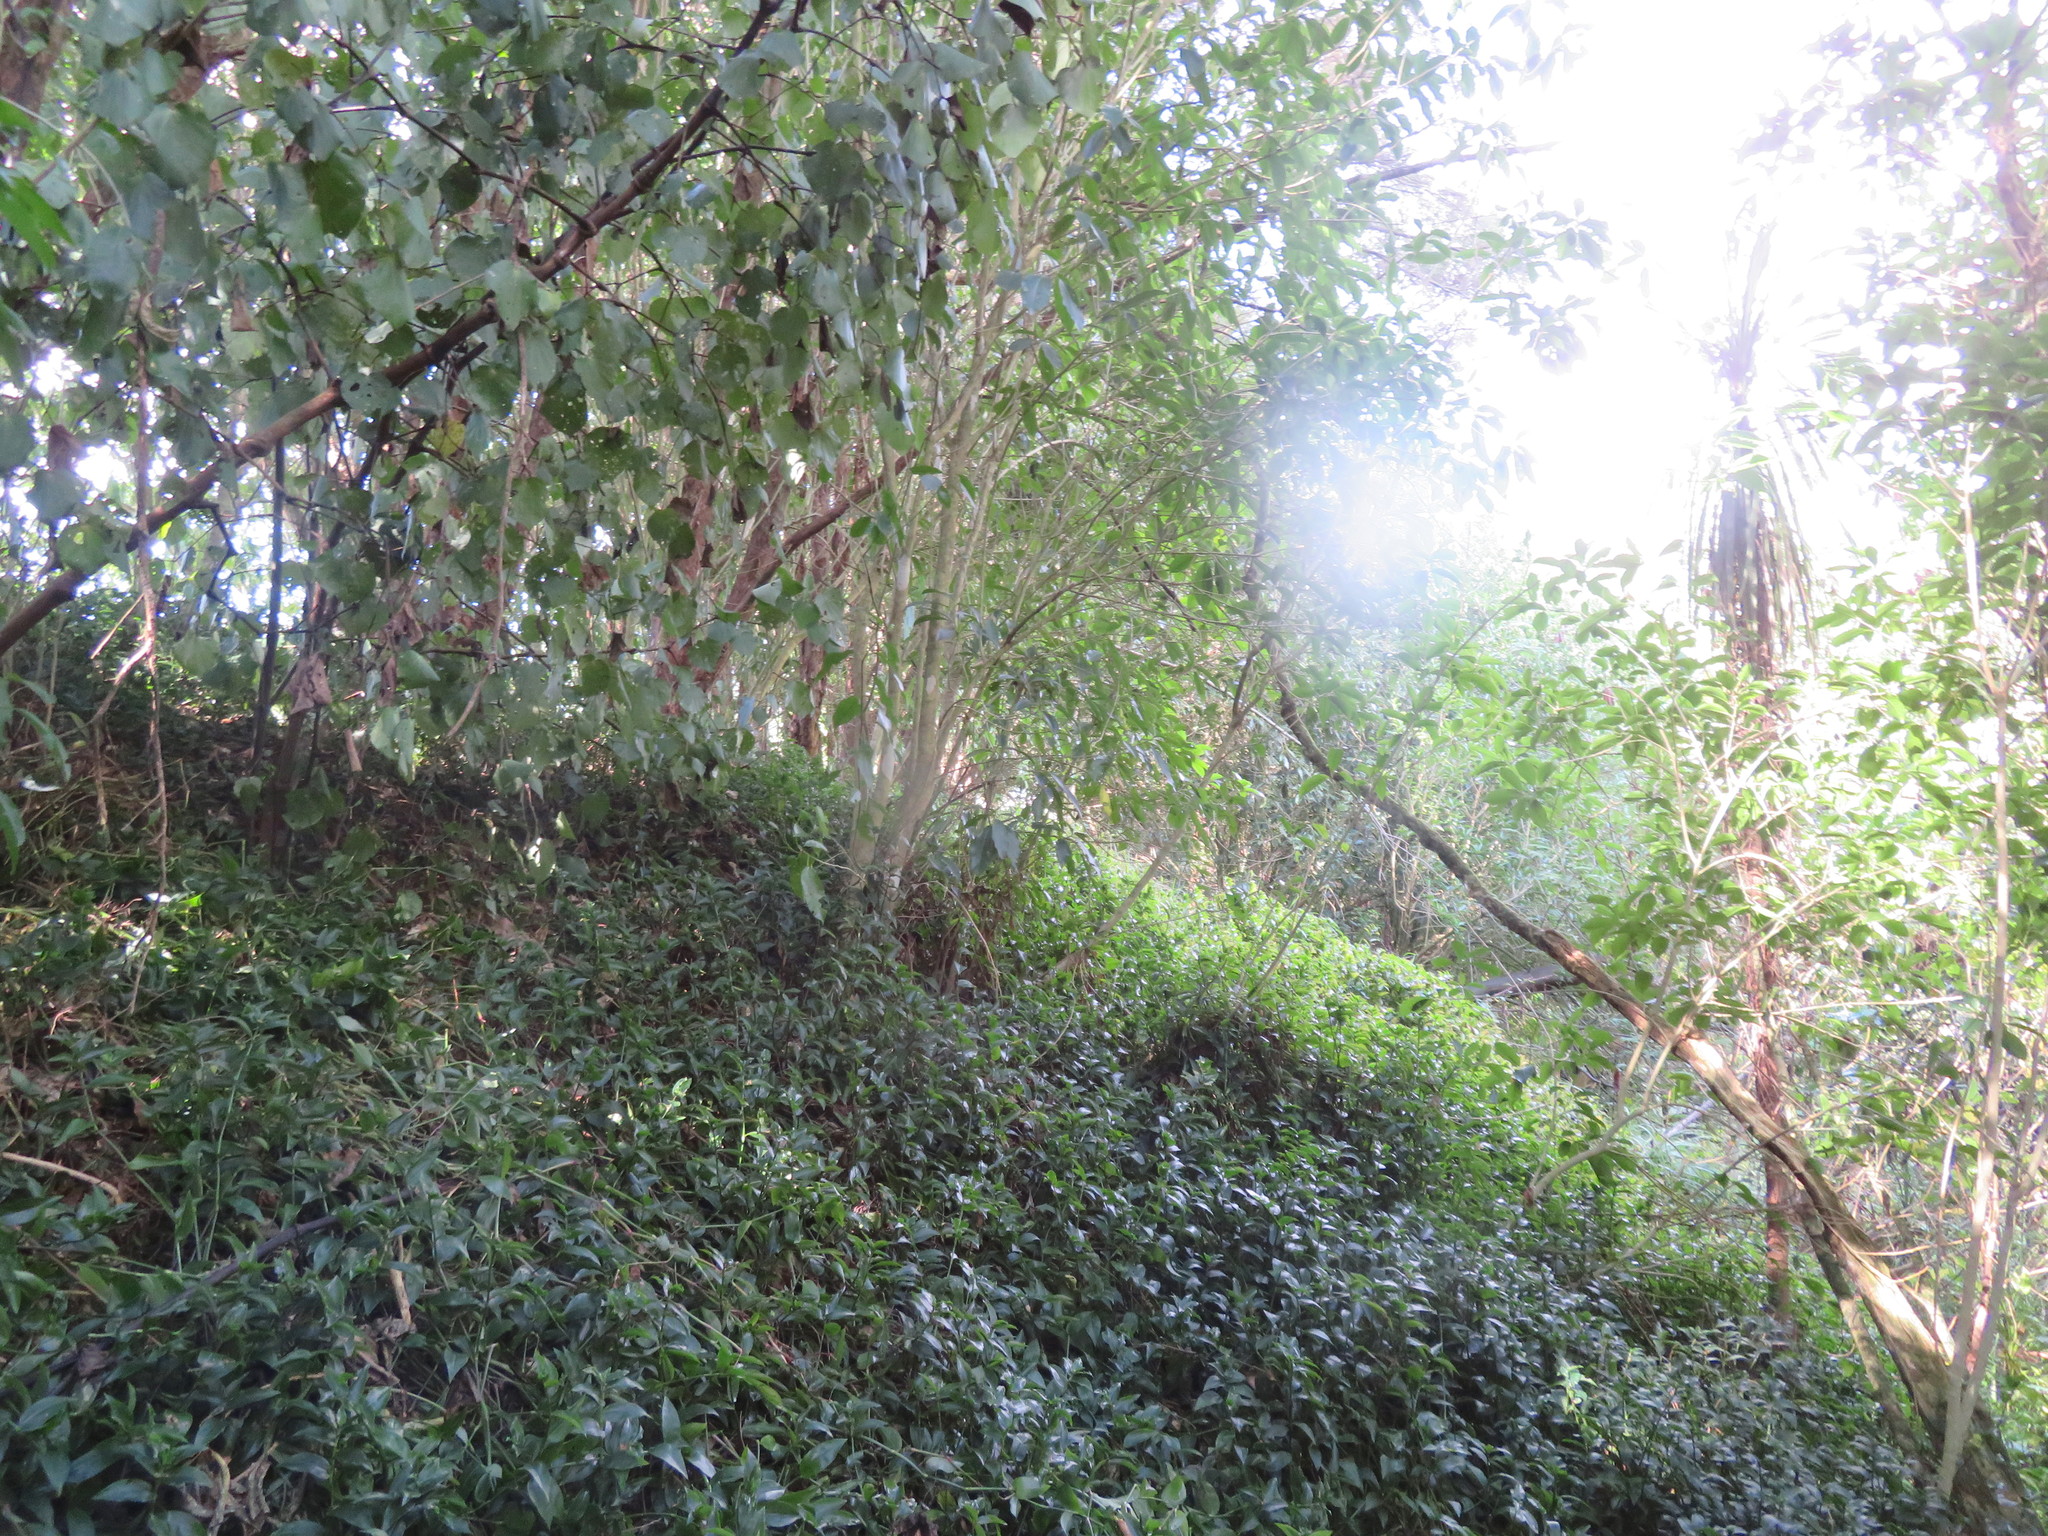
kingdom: Plantae
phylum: Tracheophyta
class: Magnoliopsida
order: Malpighiales
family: Violaceae
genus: Melicytus
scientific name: Melicytus ramiflorus
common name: Mahoe
